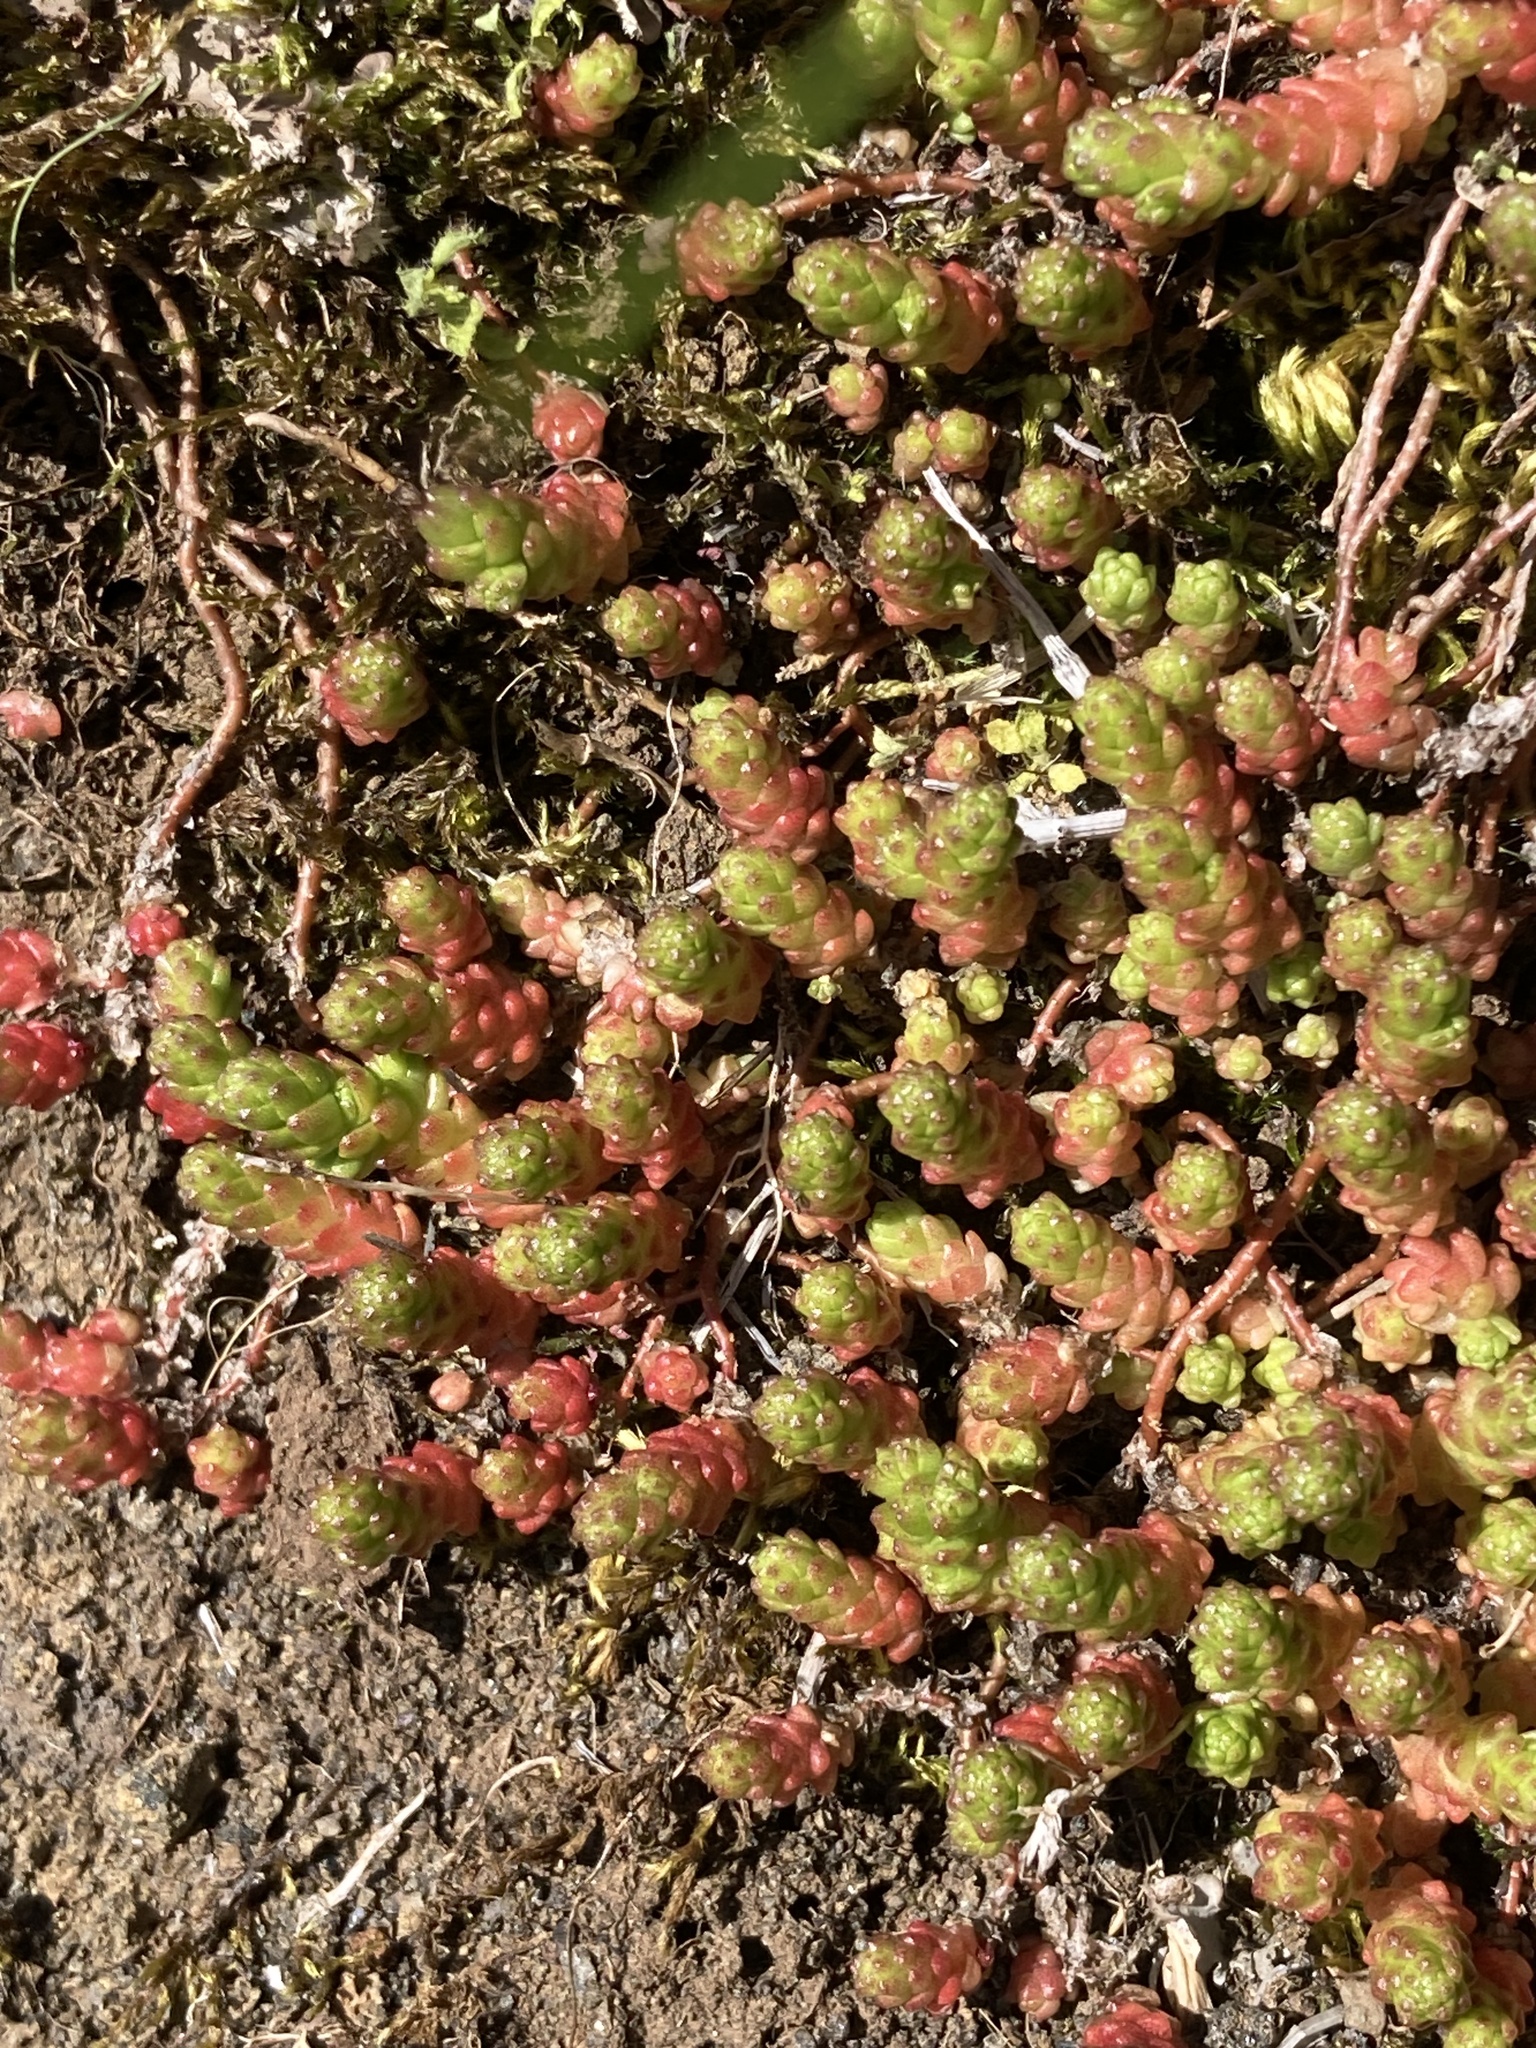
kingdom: Plantae
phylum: Tracheophyta
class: Magnoliopsida
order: Saxifragales
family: Crassulaceae
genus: Sedum
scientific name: Sedum acre
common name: Biting stonecrop
